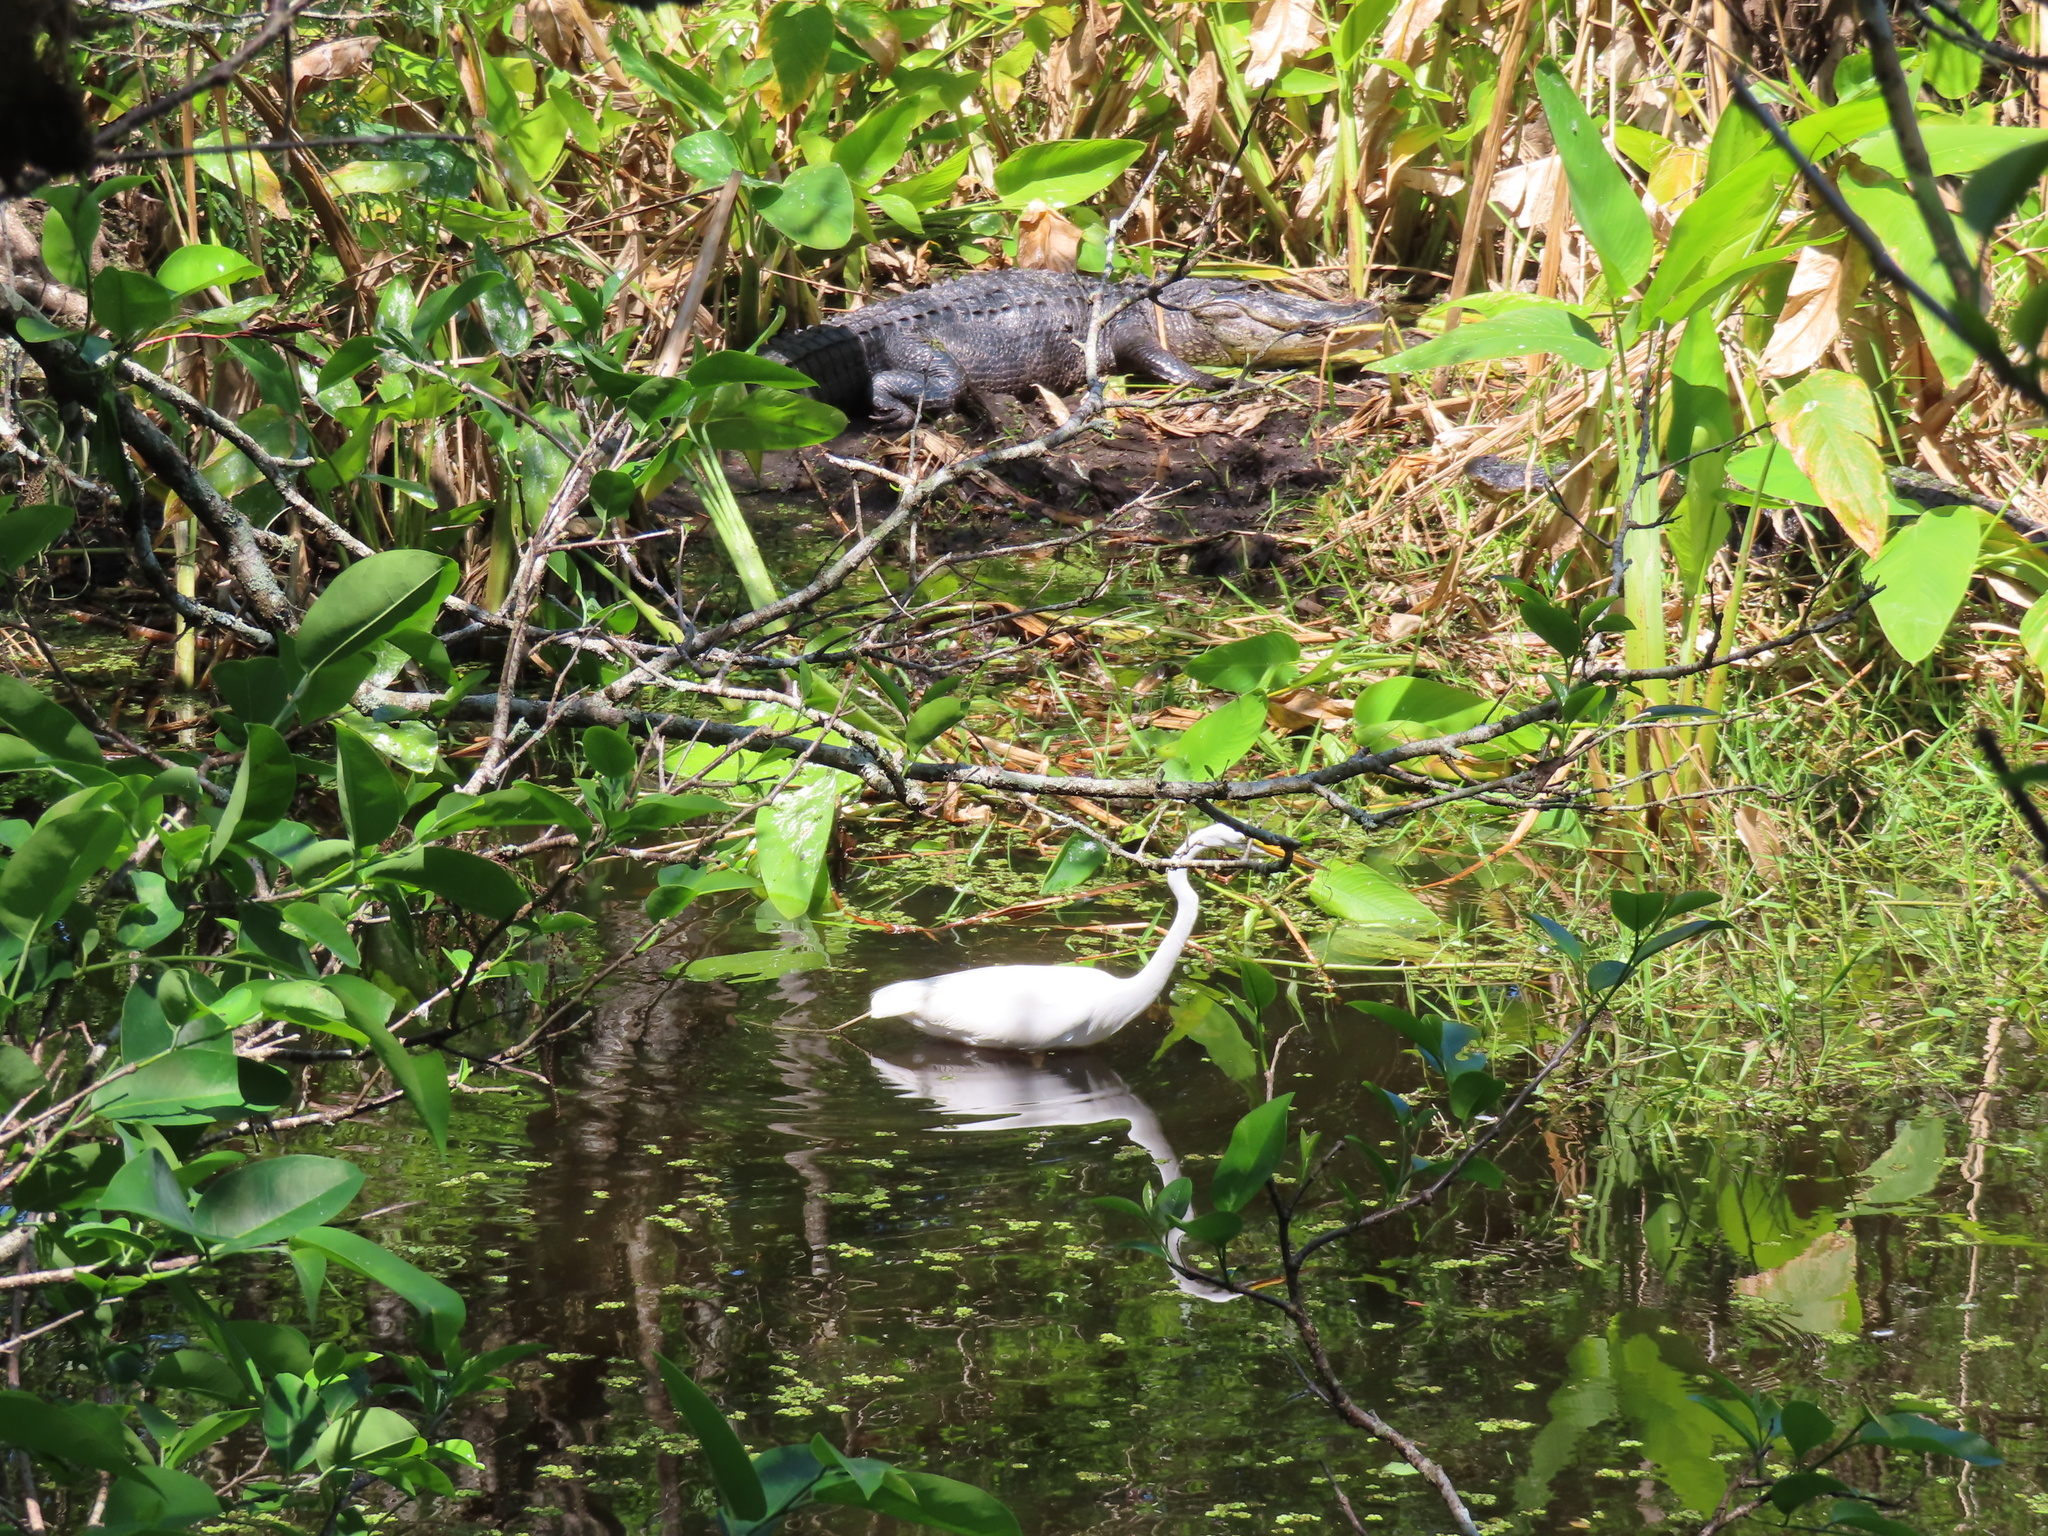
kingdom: Animalia
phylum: Chordata
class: Aves
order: Pelecaniformes
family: Ardeidae
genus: Ardea
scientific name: Ardea alba
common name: Great egret
